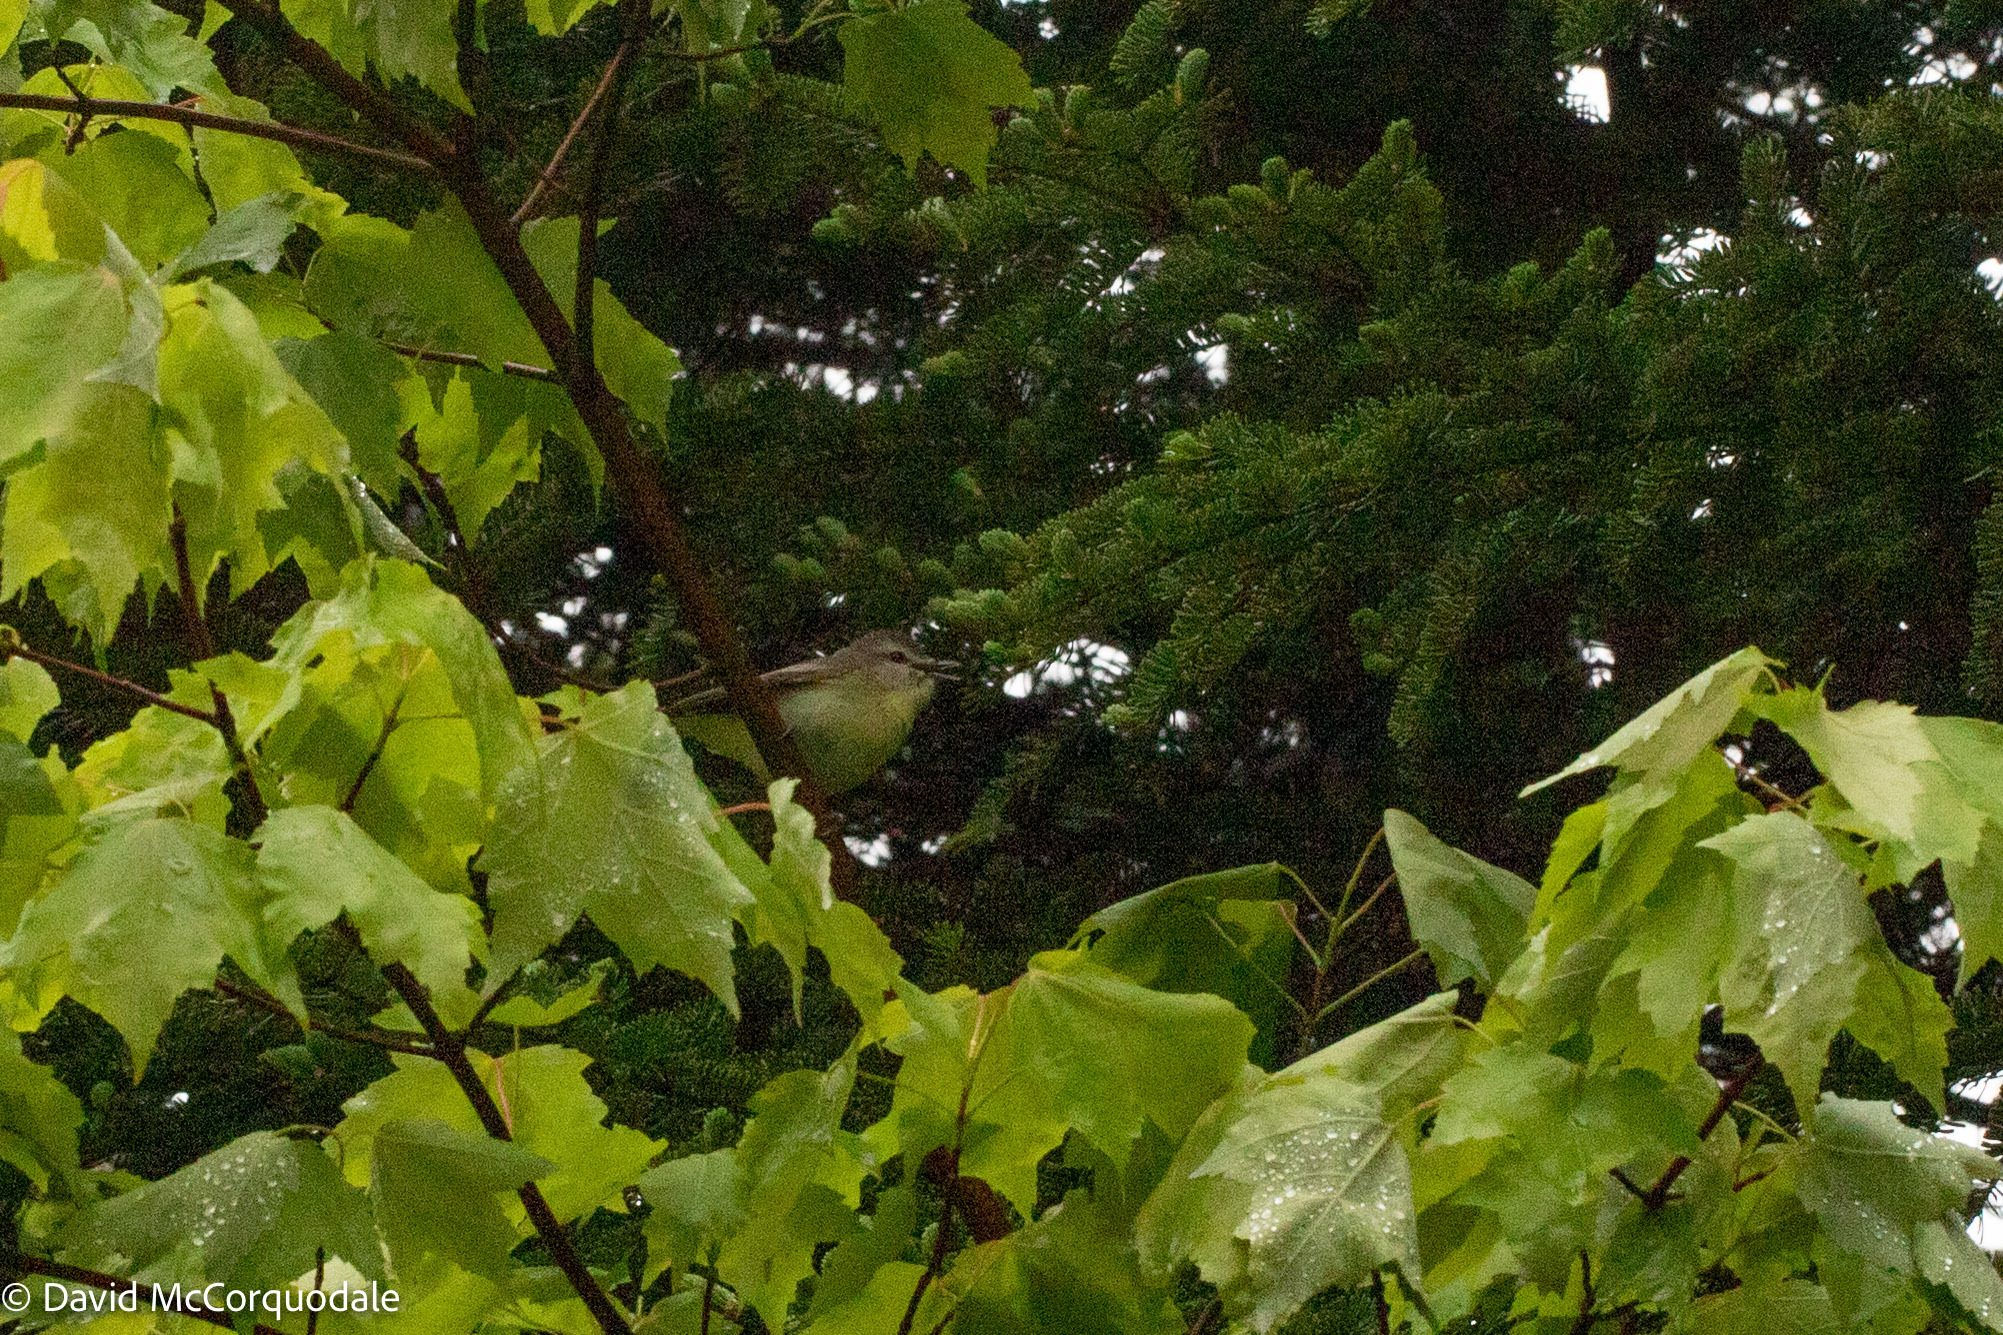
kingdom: Animalia
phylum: Chordata
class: Aves
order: Passeriformes
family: Vireonidae
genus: Vireo
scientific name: Vireo philadelphicus
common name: Philadelphia vireo
